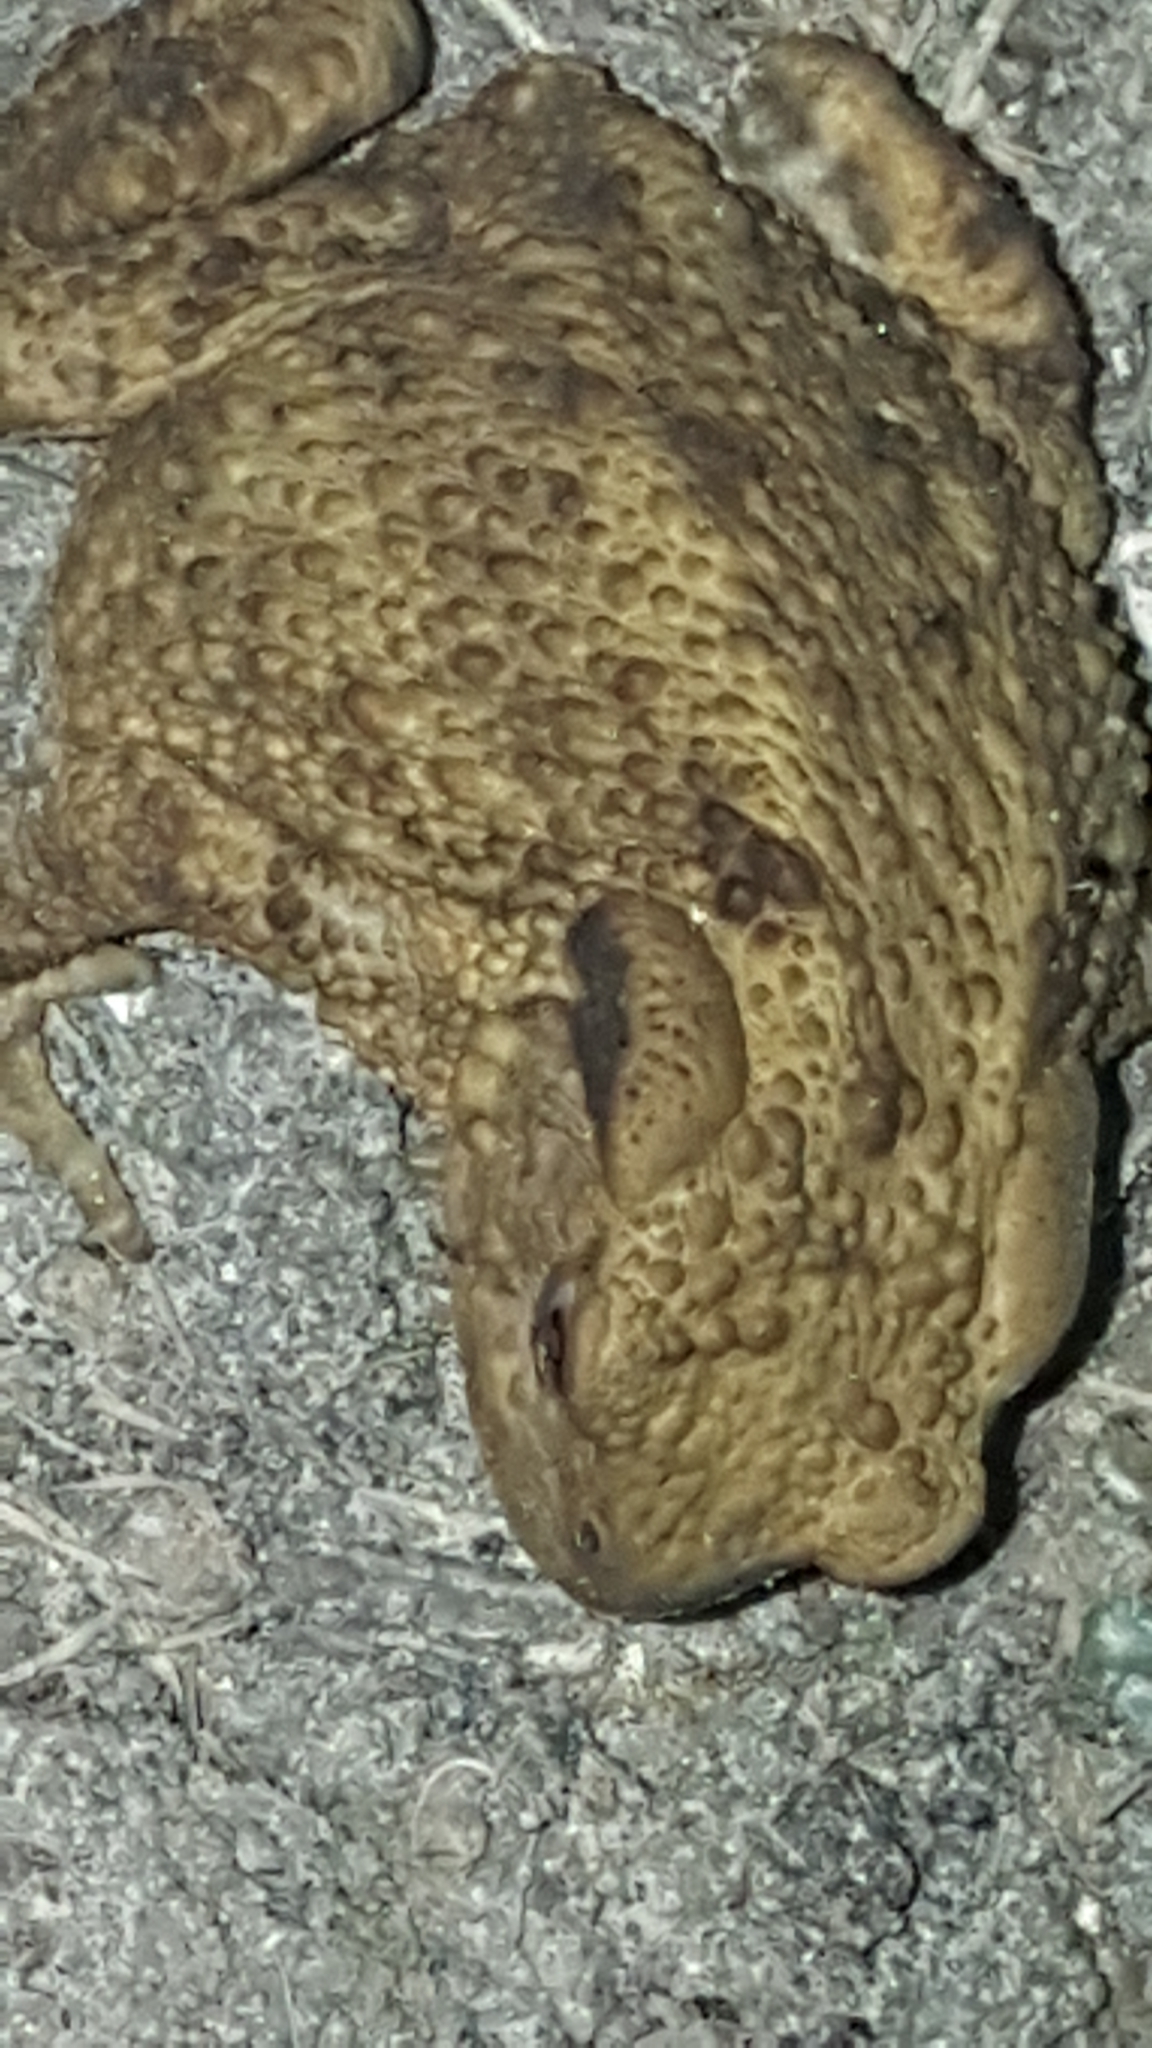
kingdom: Animalia
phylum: Chordata
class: Amphibia
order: Anura
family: Bufonidae
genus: Bufo
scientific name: Bufo bufo
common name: Common toad
